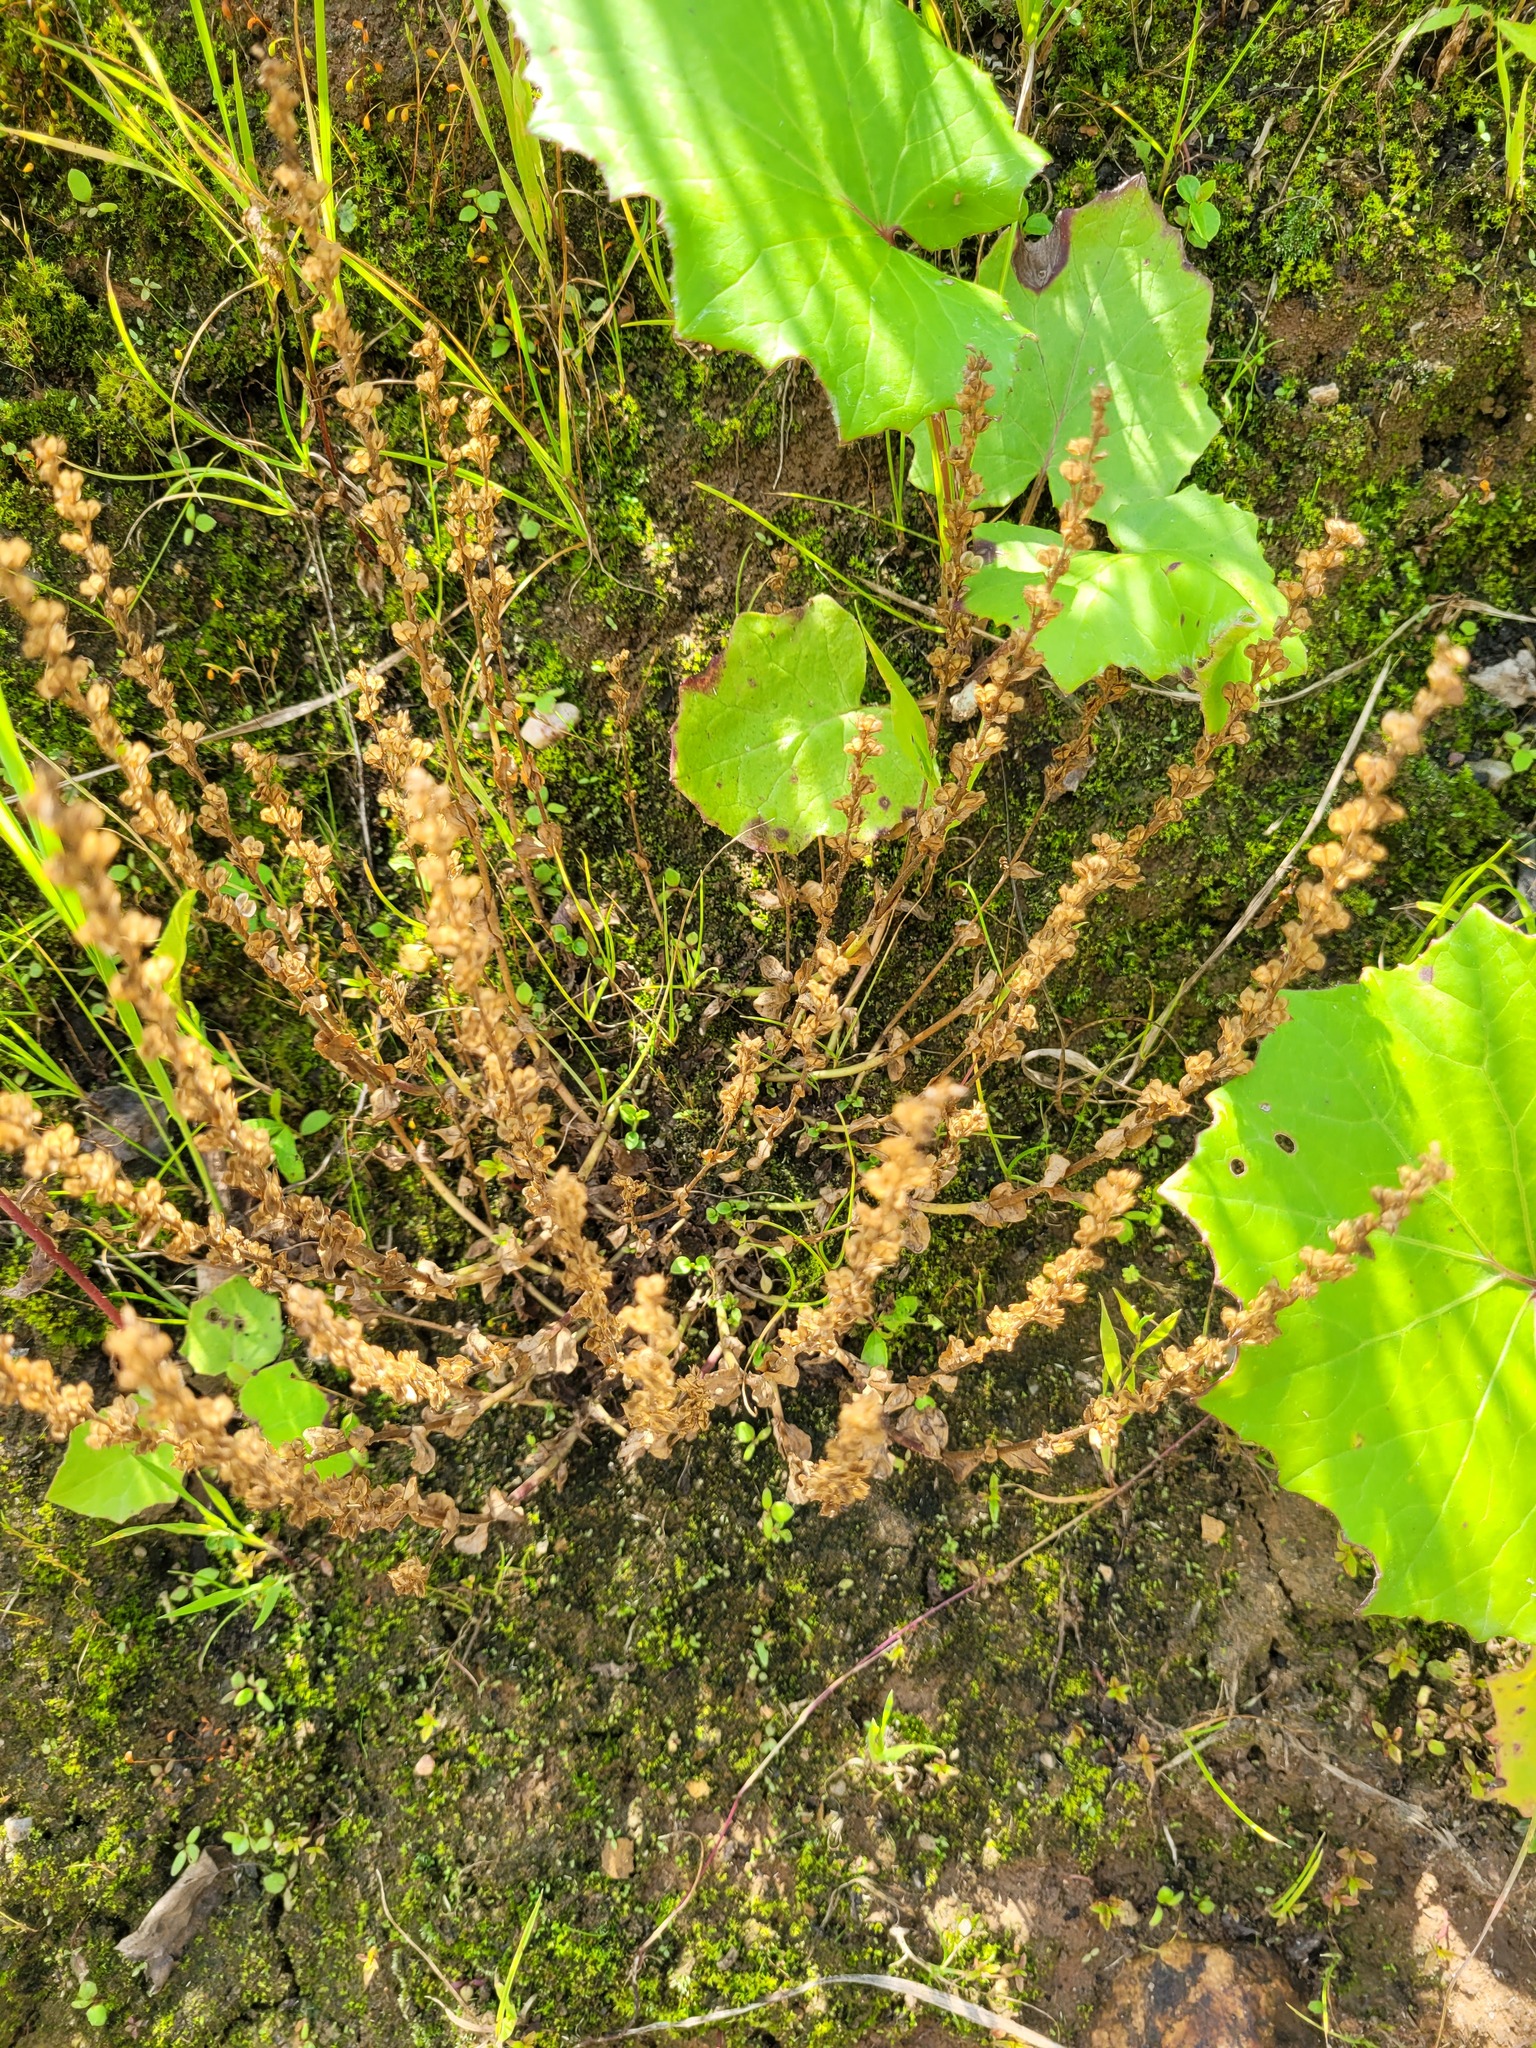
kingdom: Plantae
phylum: Tracheophyta
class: Magnoliopsida
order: Lamiales
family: Plantaginaceae
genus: Veronica
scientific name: Veronica serpyllifolia
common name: Thyme-leaved speedwell
